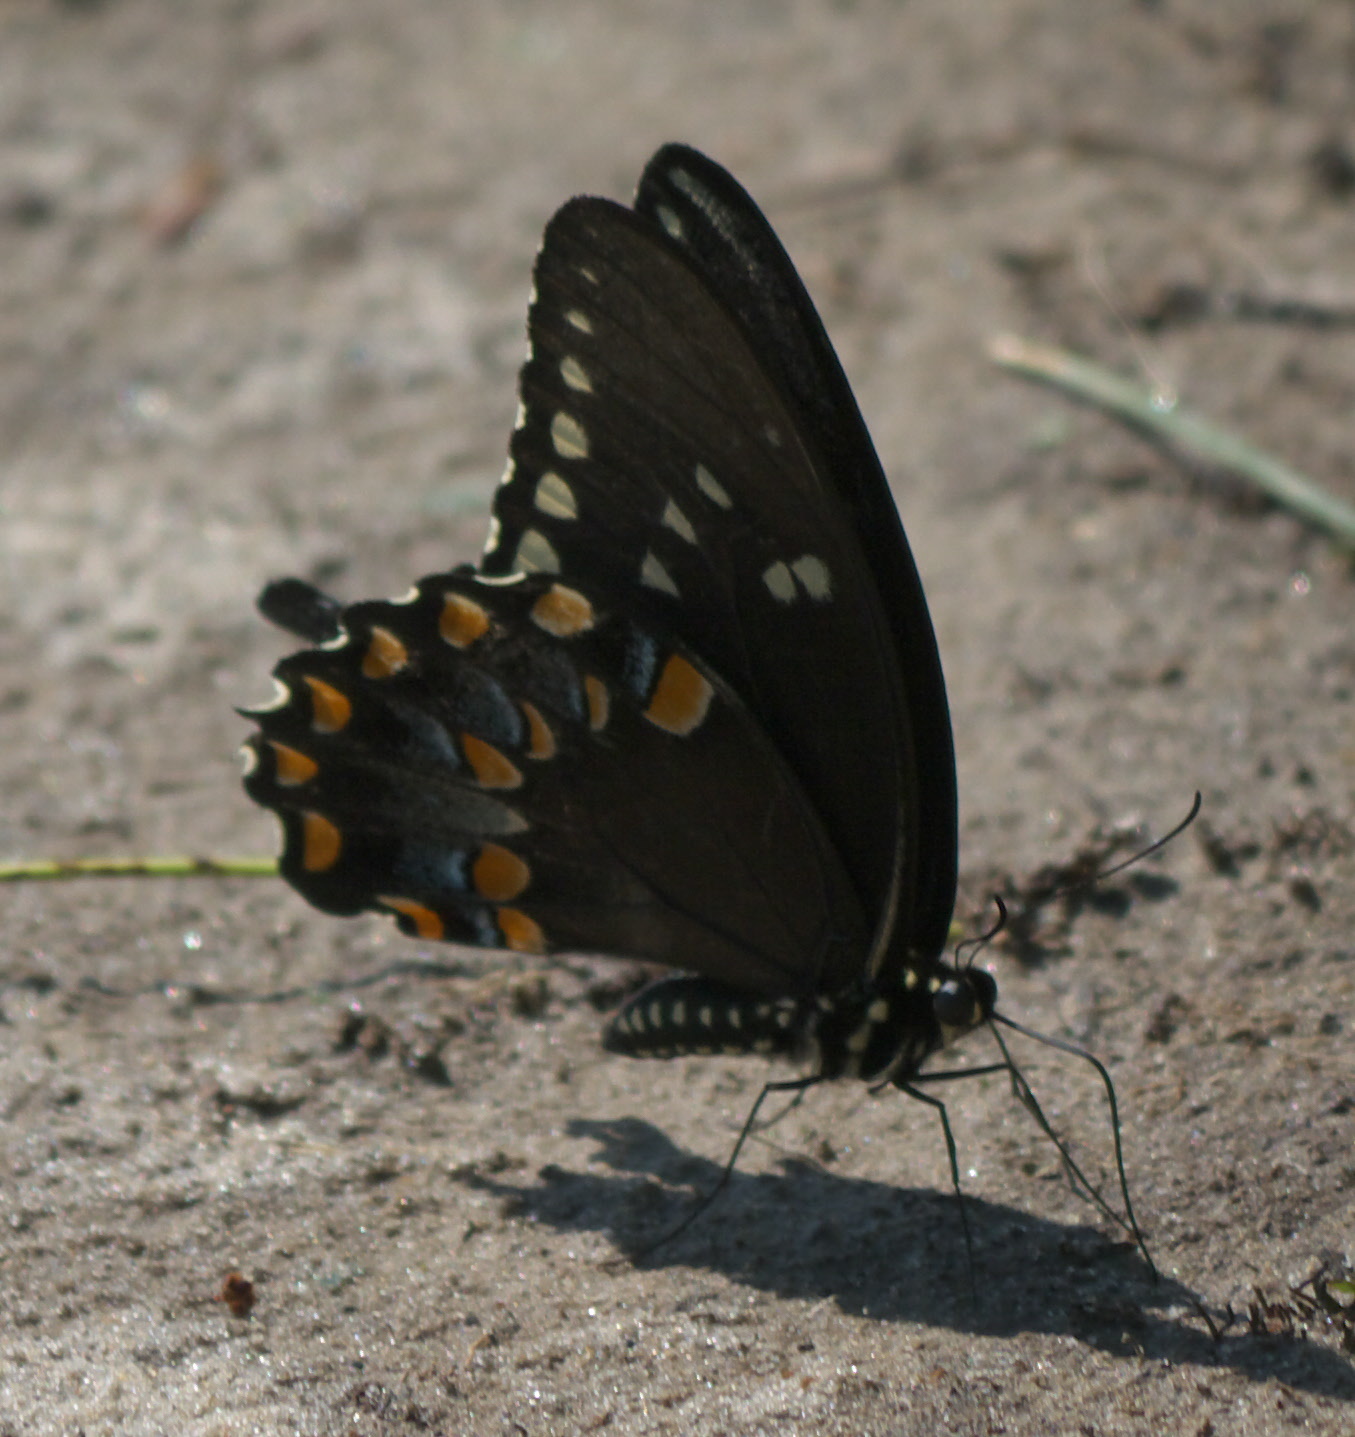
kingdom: Animalia
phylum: Arthropoda
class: Insecta
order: Lepidoptera
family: Papilionidae
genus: Papilio
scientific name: Papilio troilus
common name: Spicebush swallowtail
